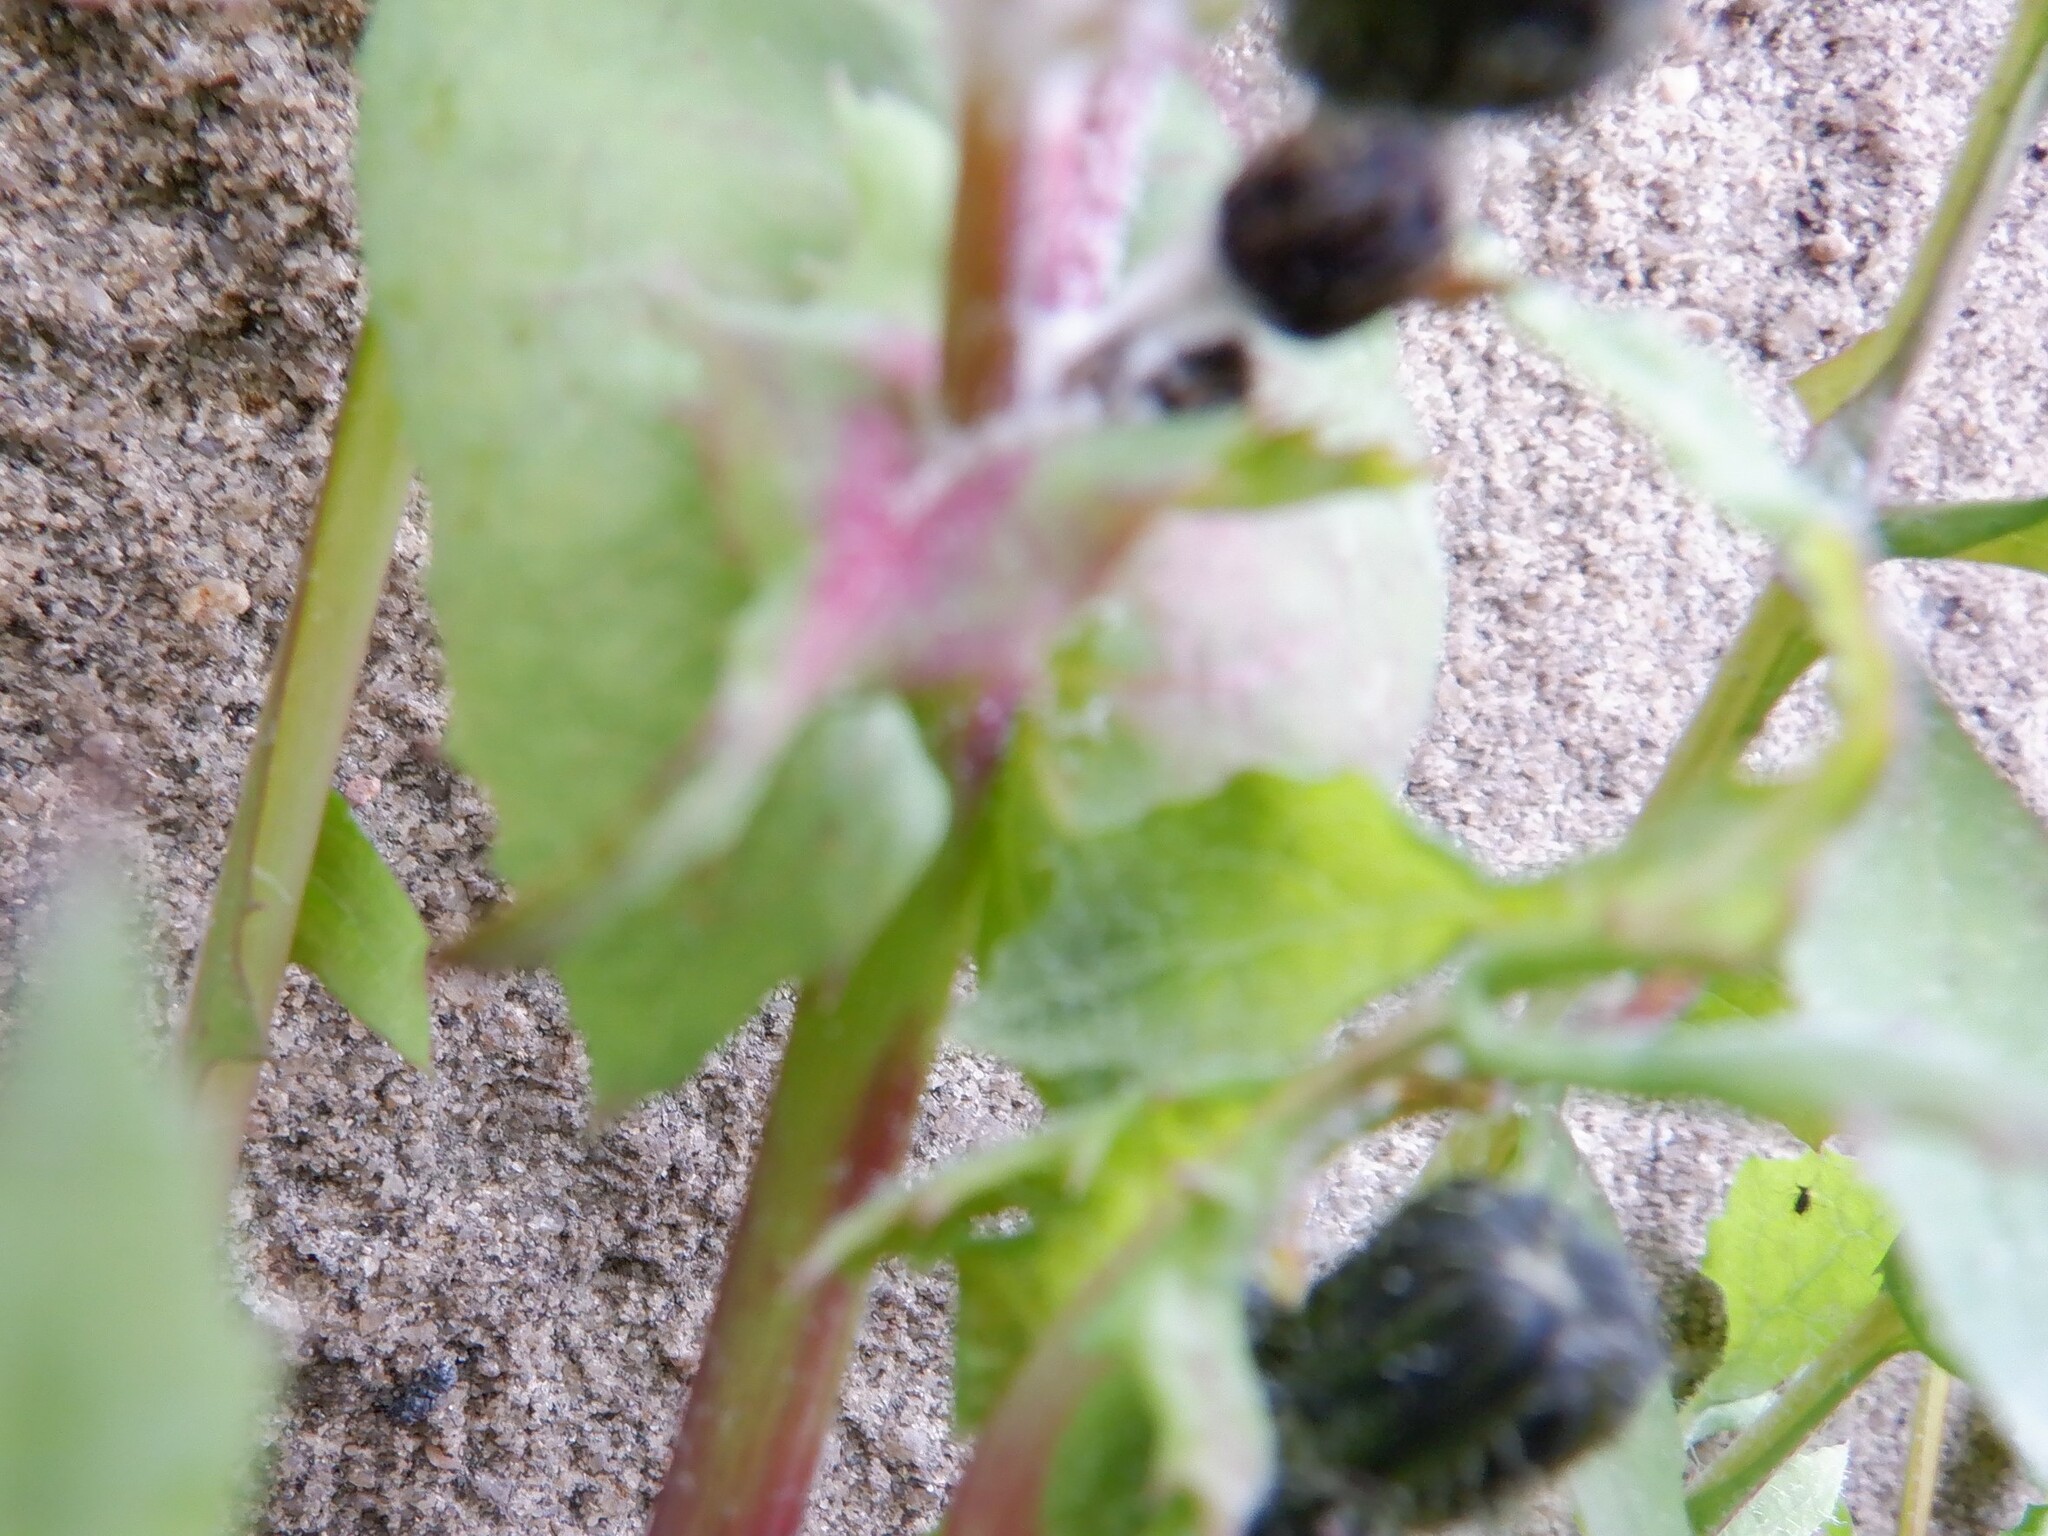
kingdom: Plantae
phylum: Tracheophyta
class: Magnoliopsida
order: Asterales
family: Asteraceae
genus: Sonchus
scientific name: Sonchus oleraceus
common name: Common sowthistle
